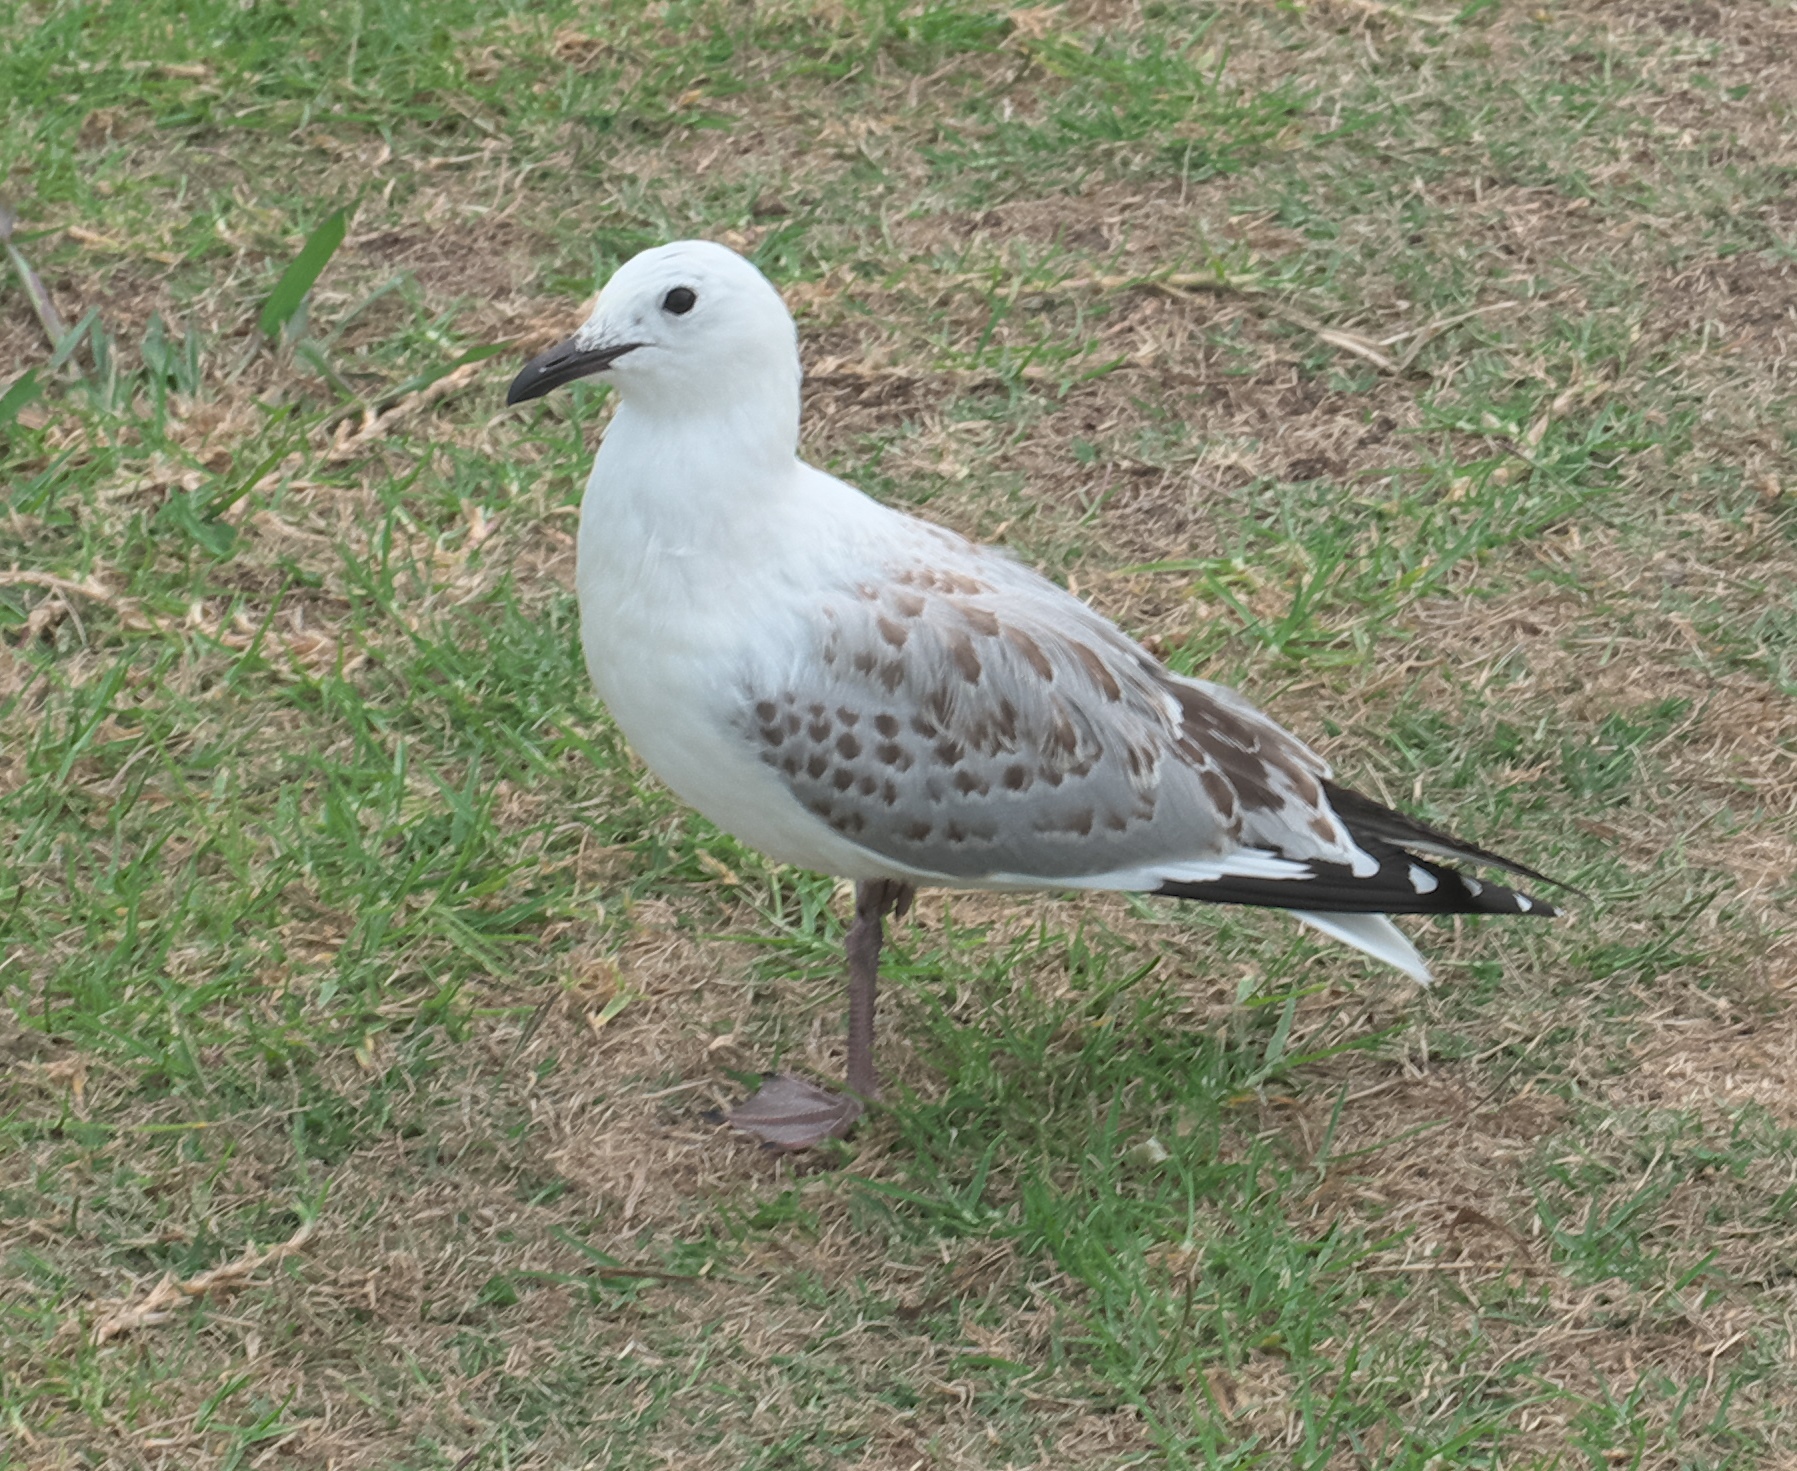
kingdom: Animalia
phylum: Chordata
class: Aves
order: Charadriiformes
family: Laridae
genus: Chroicocephalus
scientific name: Chroicocephalus novaehollandiae
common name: Silver gull
